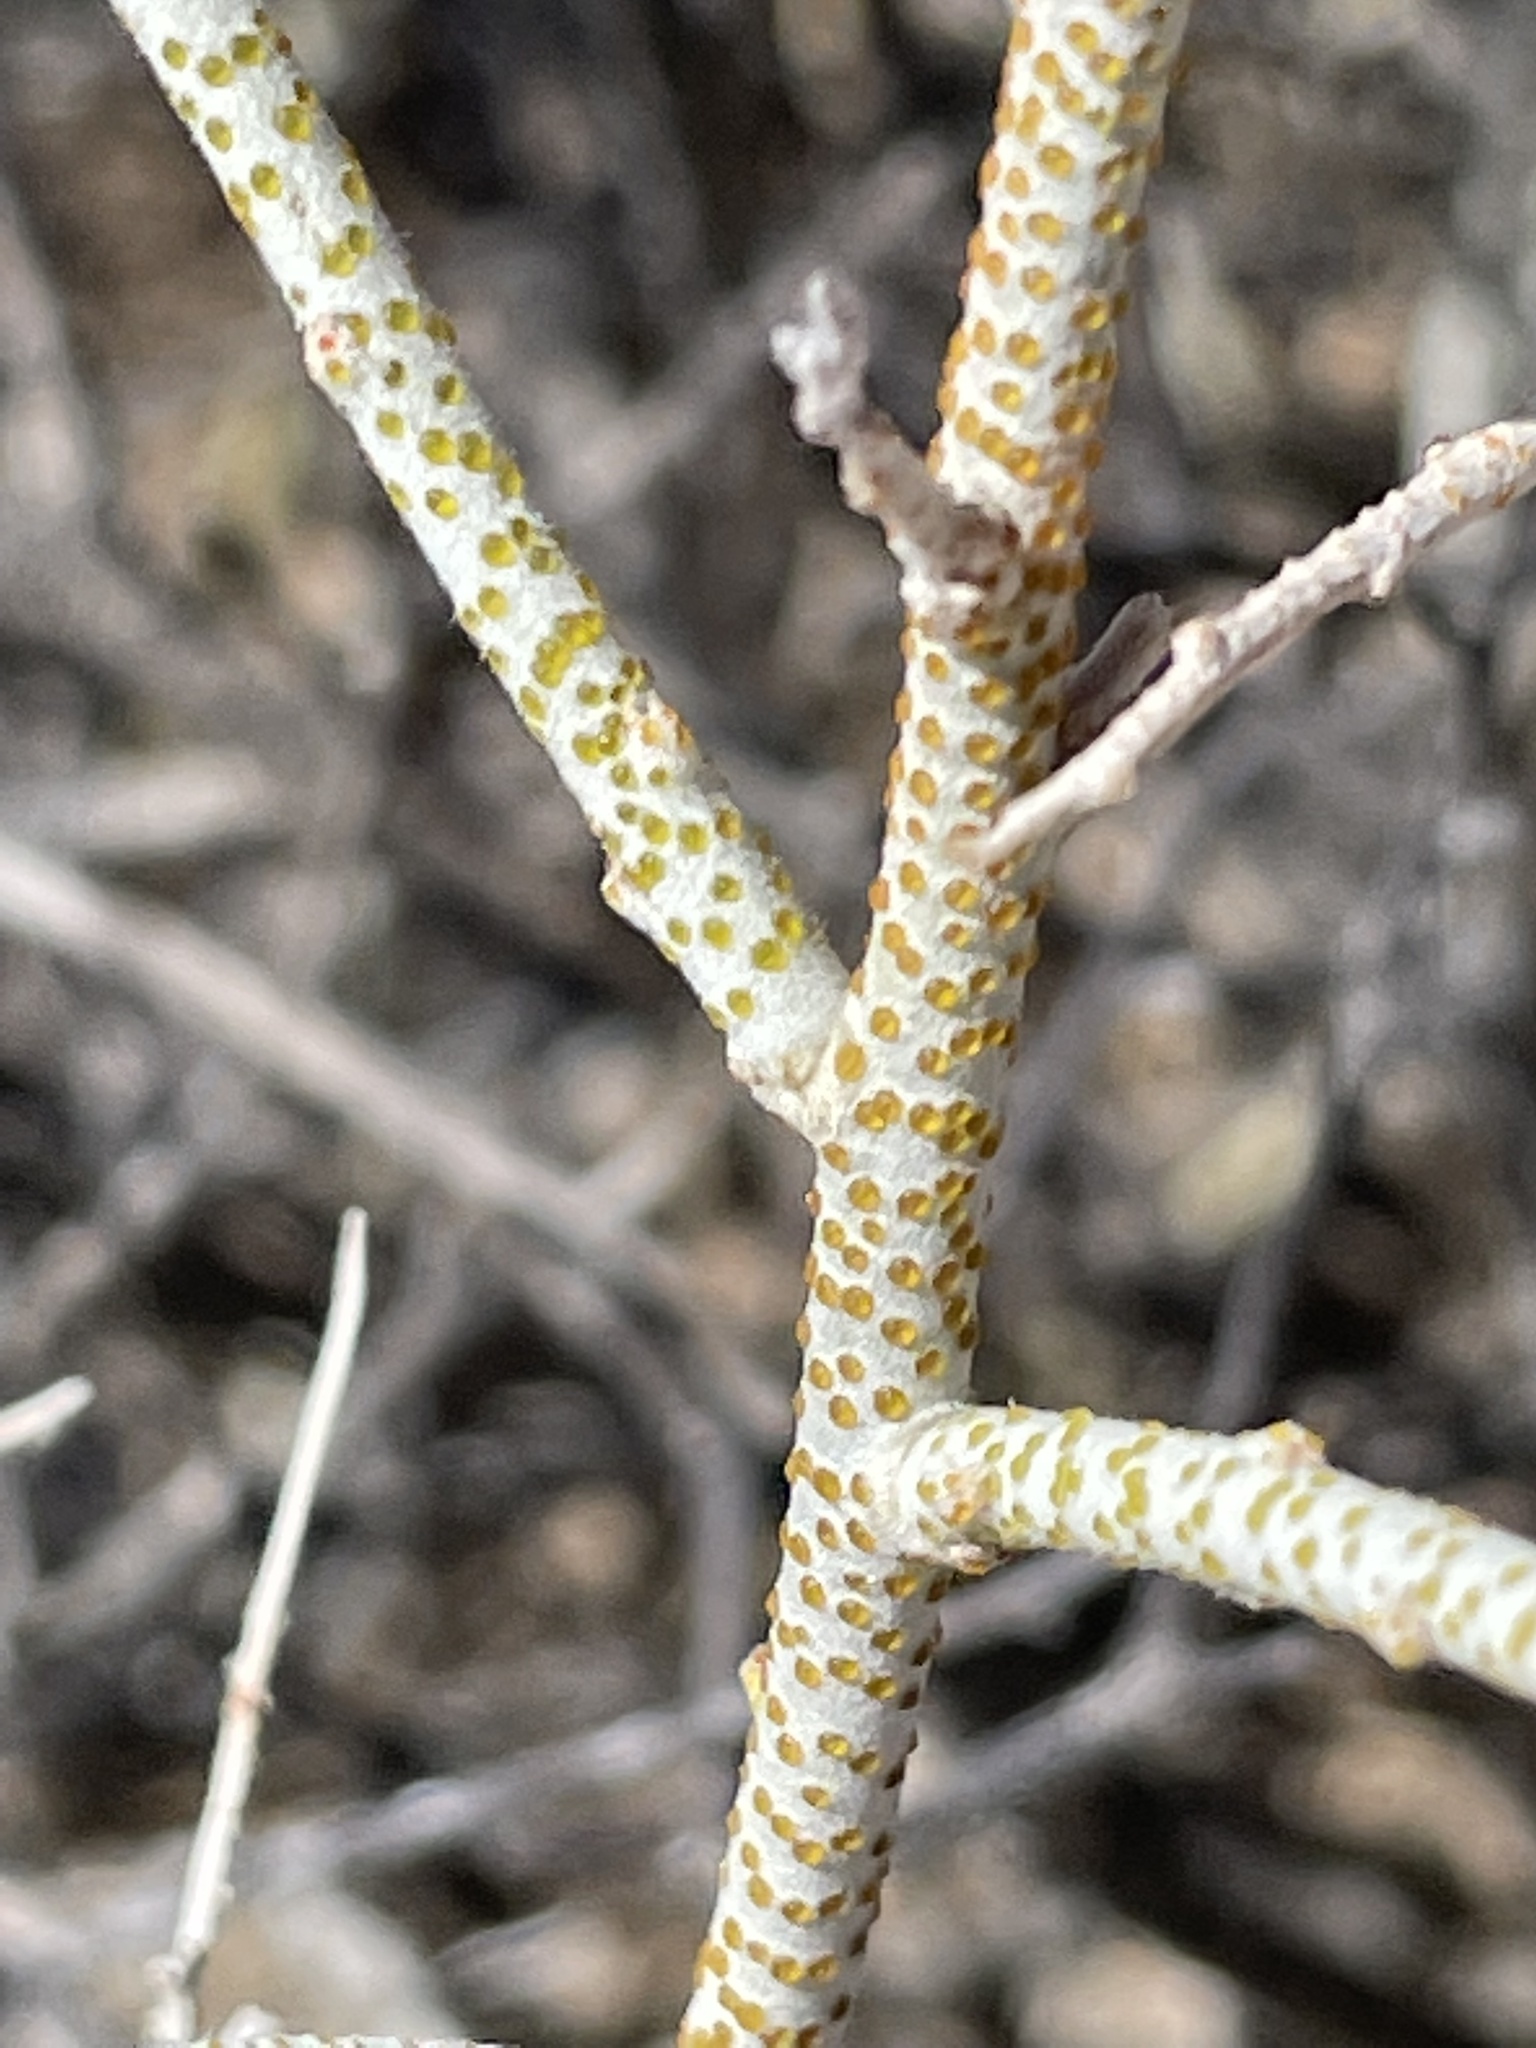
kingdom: Plantae
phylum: Tracheophyta
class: Magnoliopsida
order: Fabales
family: Fabaceae
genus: Psorothamnus
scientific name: Psorothamnus polydenius
